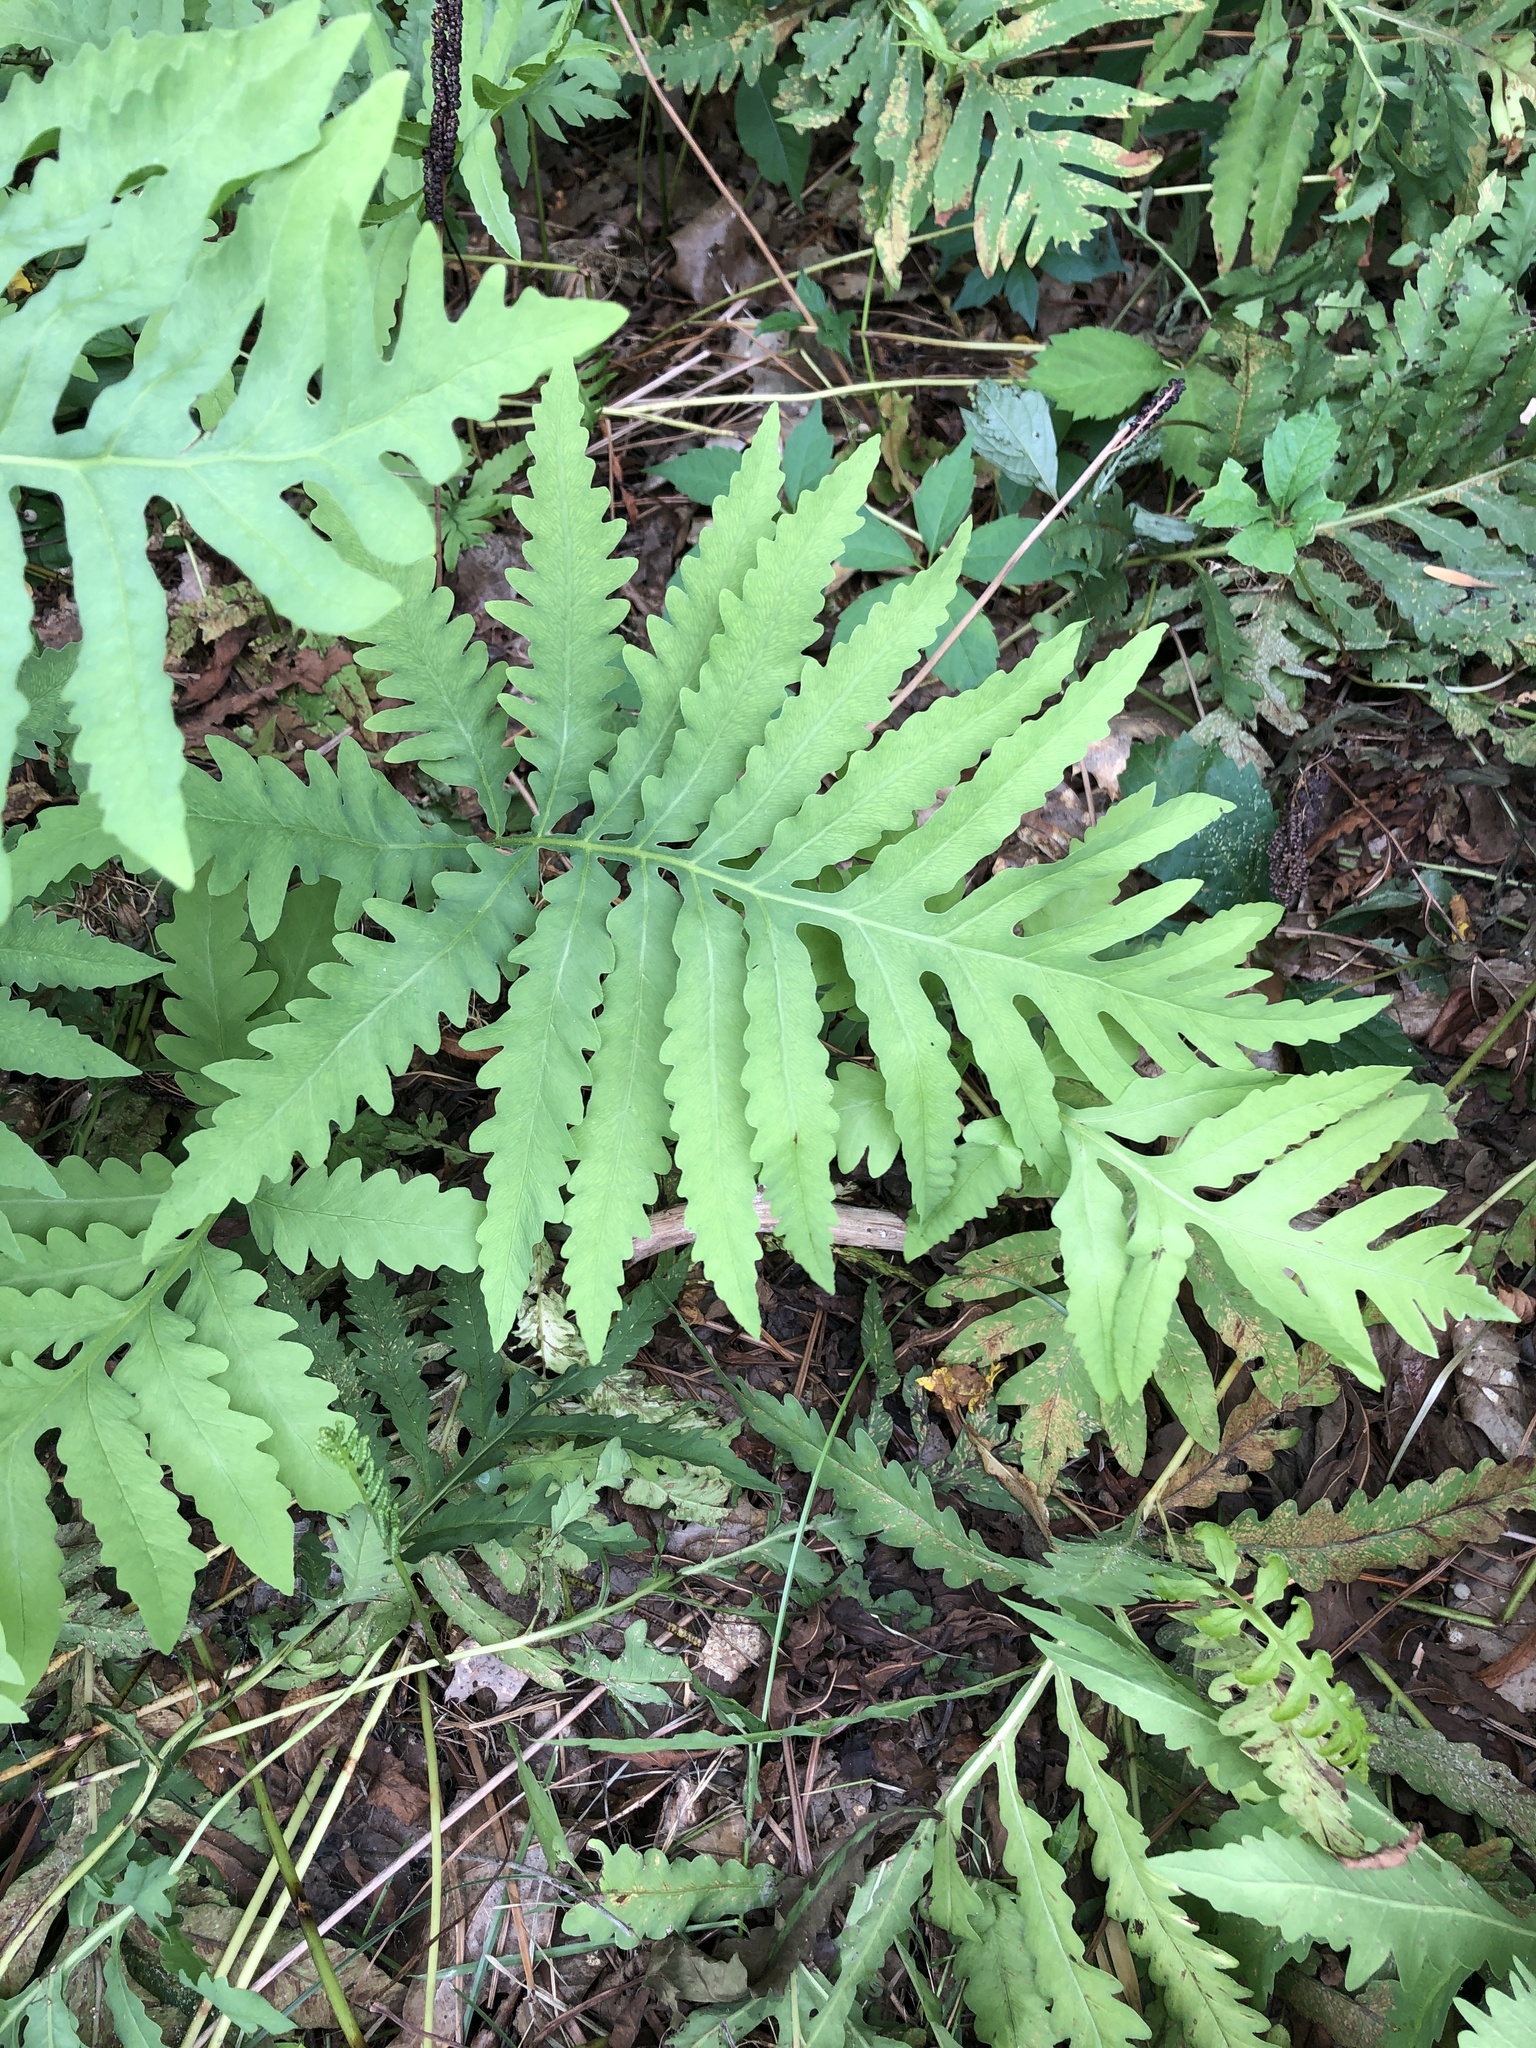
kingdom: Plantae
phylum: Tracheophyta
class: Polypodiopsida
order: Polypodiales
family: Onocleaceae
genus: Onoclea
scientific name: Onoclea sensibilis
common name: Sensitive fern
